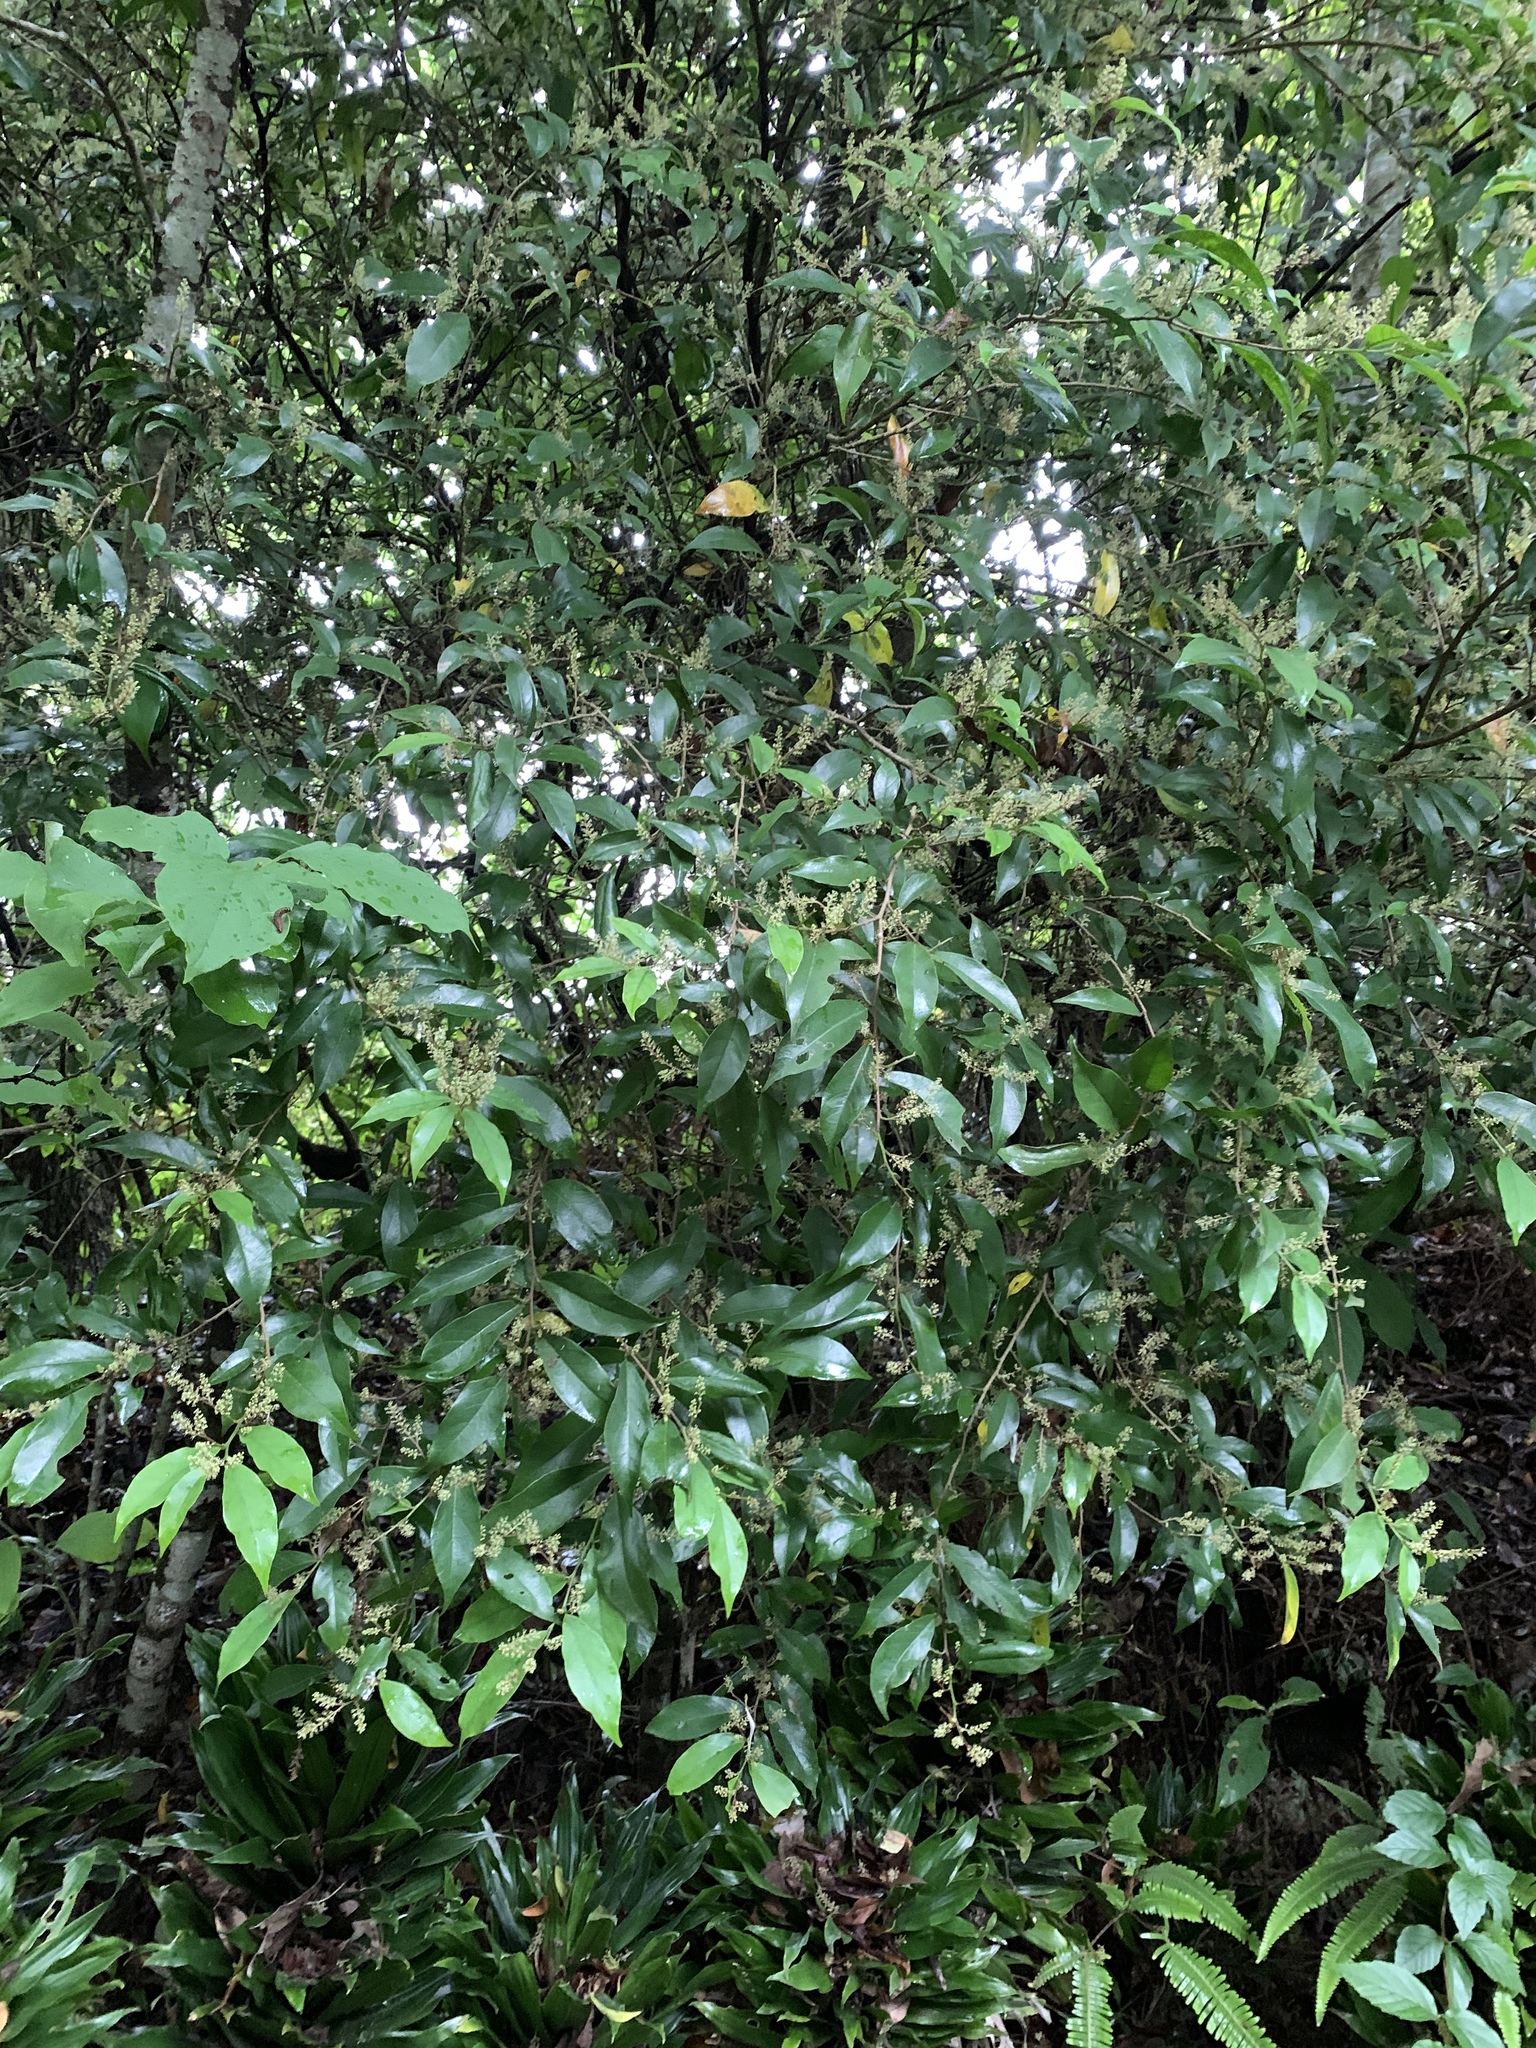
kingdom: Plantae
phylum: Tracheophyta
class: Magnoliopsida
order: Malpighiales
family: Phyllanthaceae
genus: Antidesma
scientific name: Antidesma japonicum
